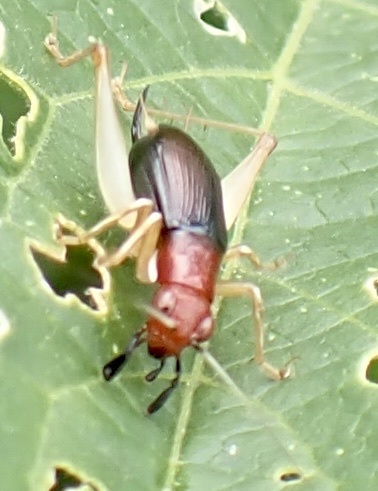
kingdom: Animalia
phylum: Arthropoda
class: Insecta
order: Orthoptera
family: Trigonidiidae
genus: Phyllopalpus
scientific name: Phyllopalpus pulchellus
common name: Handsome trig
